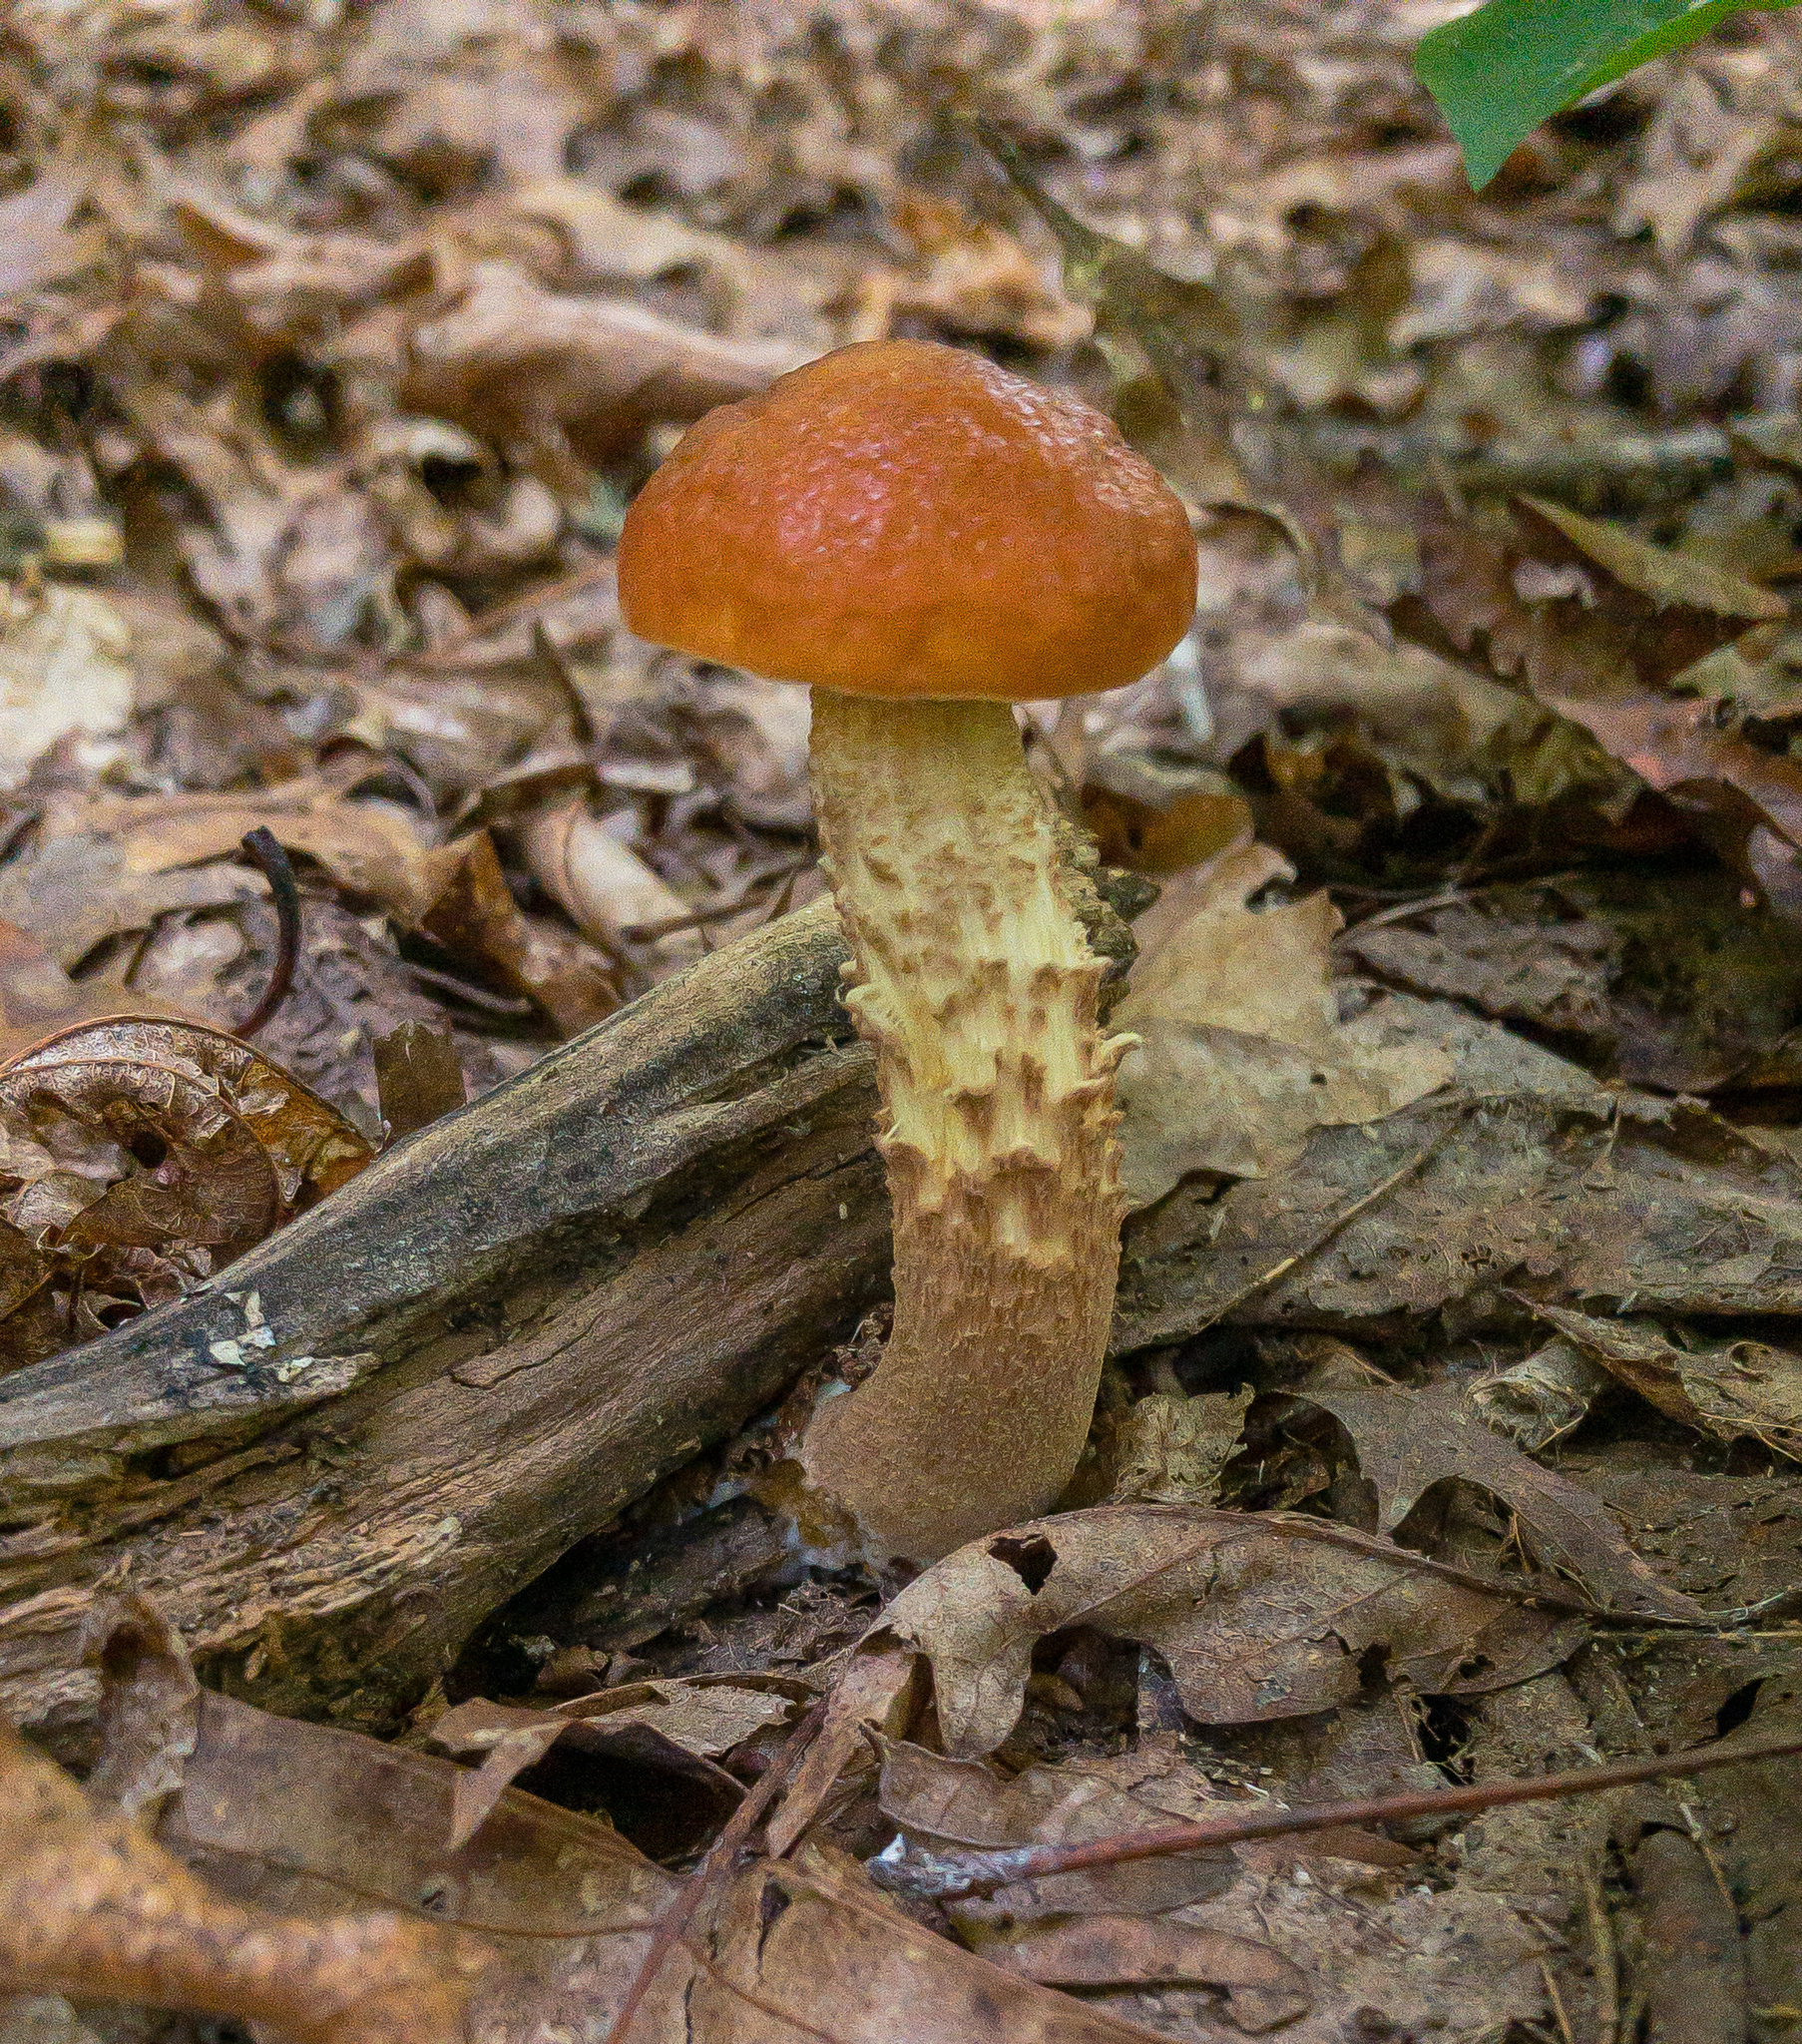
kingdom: Fungi
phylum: Basidiomycota
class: Agaricomycetes
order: Boletales
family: Boletaceae
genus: Leccinum
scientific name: Leccinum longicurvipes
